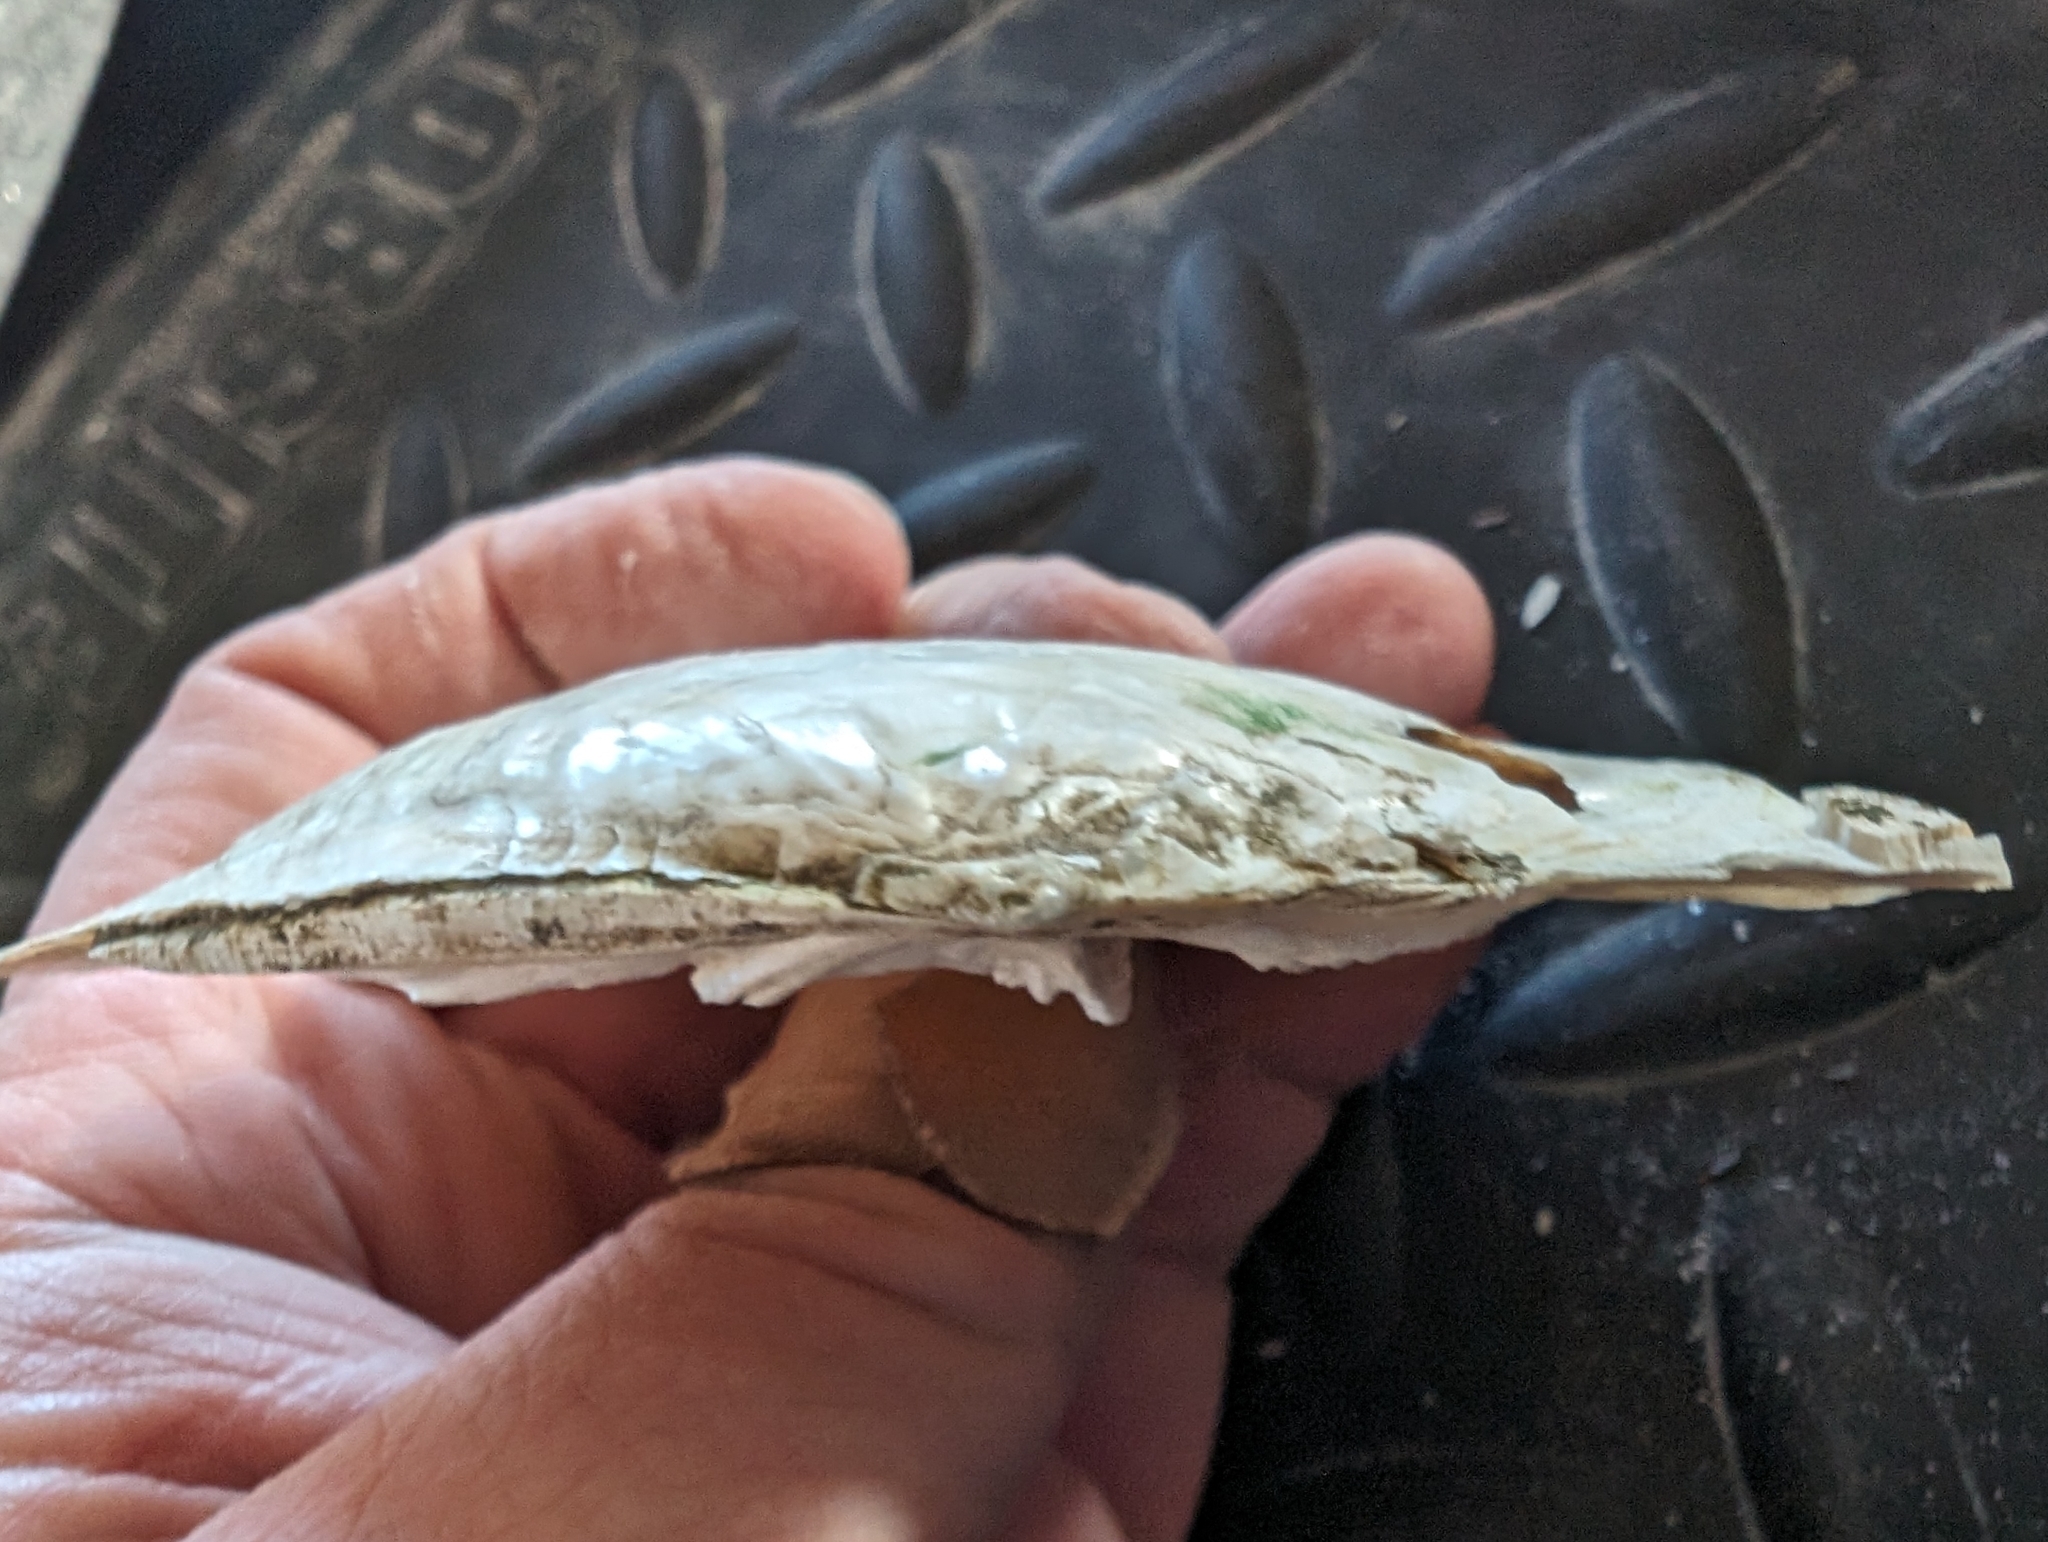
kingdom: Animalia
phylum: Mollusca
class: Bivalvia
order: Unionida
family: Unionidae
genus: Lasmigona
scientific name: Lasmigona complanata
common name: White heelsplitter
